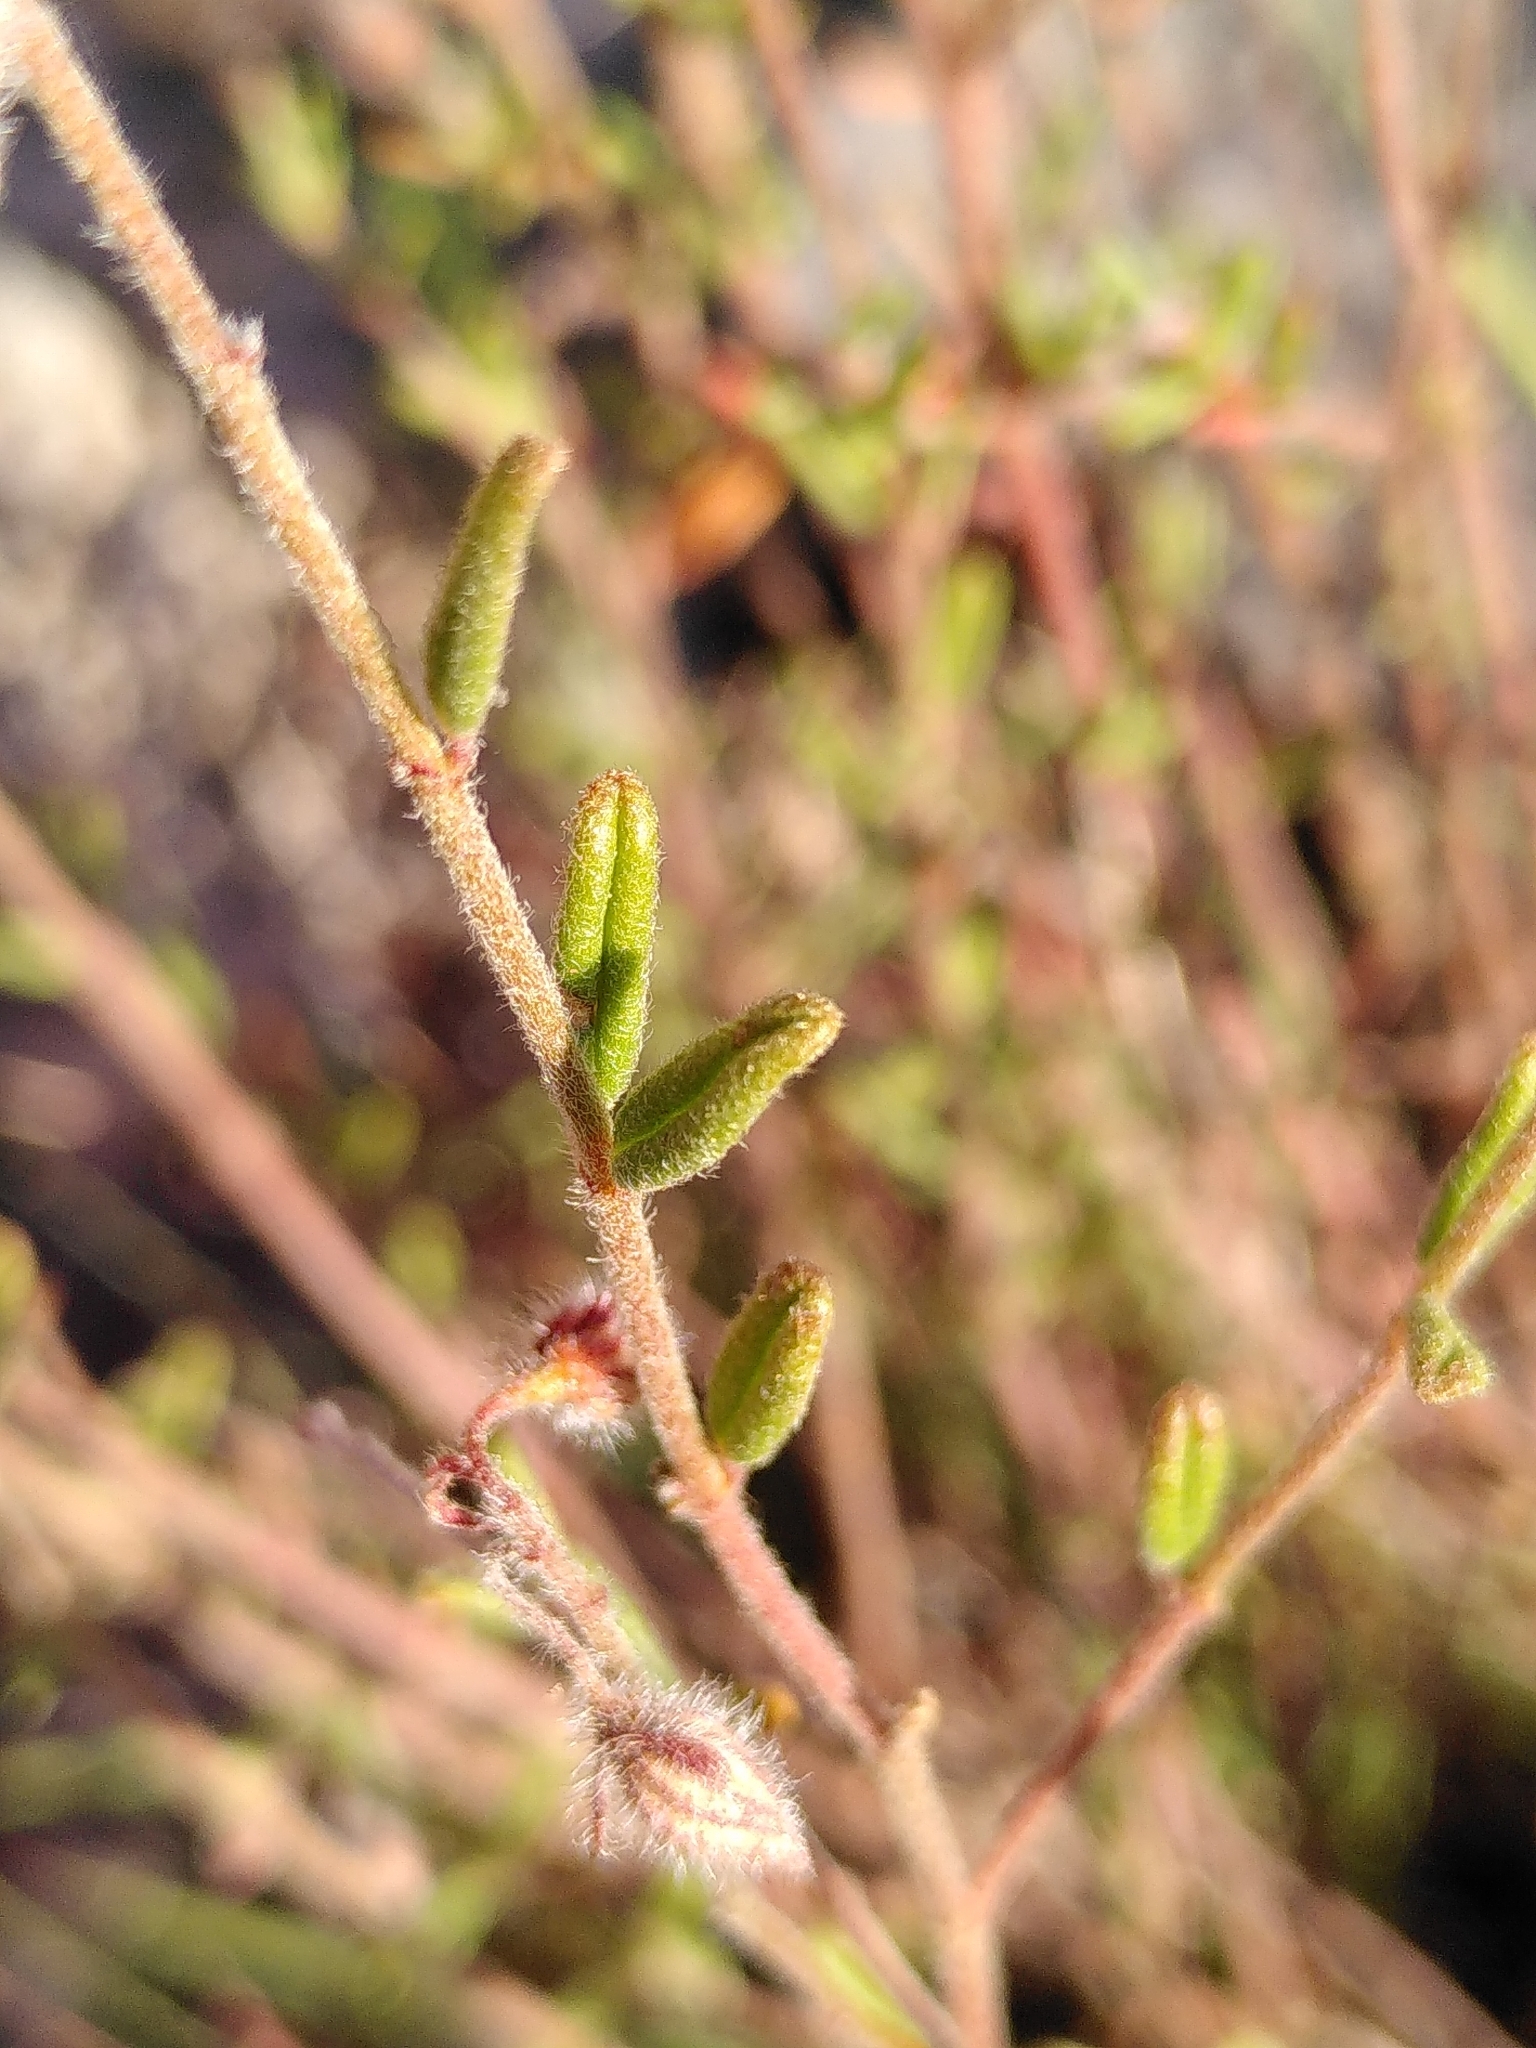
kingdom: Plantae
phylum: Tracheophyta
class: Magnoliopsida
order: Malvales
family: Cistaceae
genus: Helianthemum
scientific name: Helianthemum hirtum
